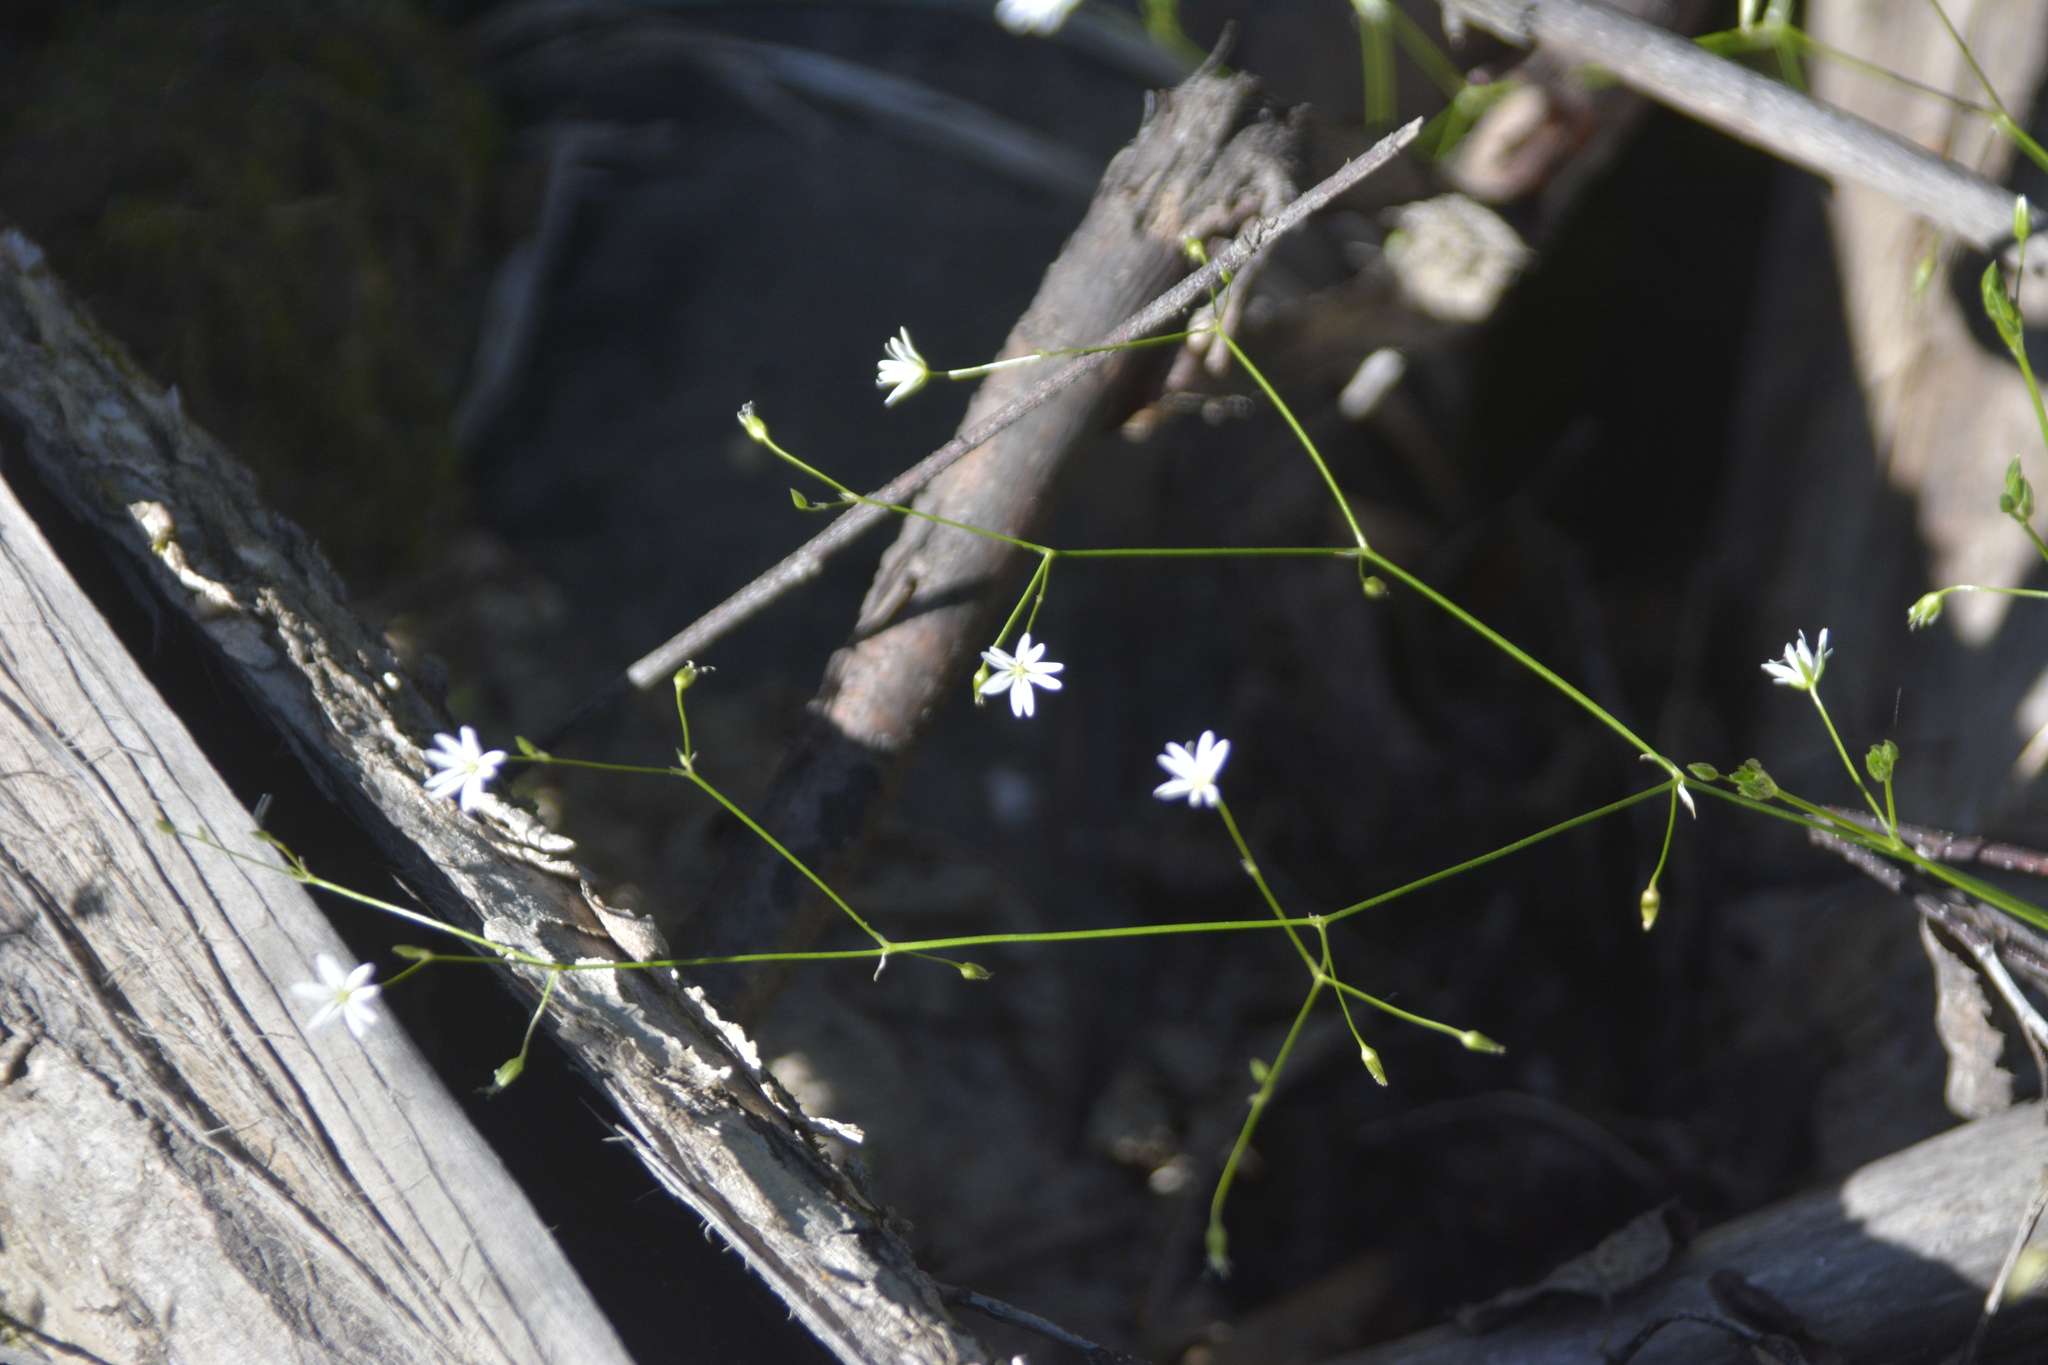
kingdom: Plantae
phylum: Tracheophyta
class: Magnoliopsida
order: Caryophyllales
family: Caryophyllaceae
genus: Stellaria
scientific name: Stellaria longifolia
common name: Long-leaved chickweed
